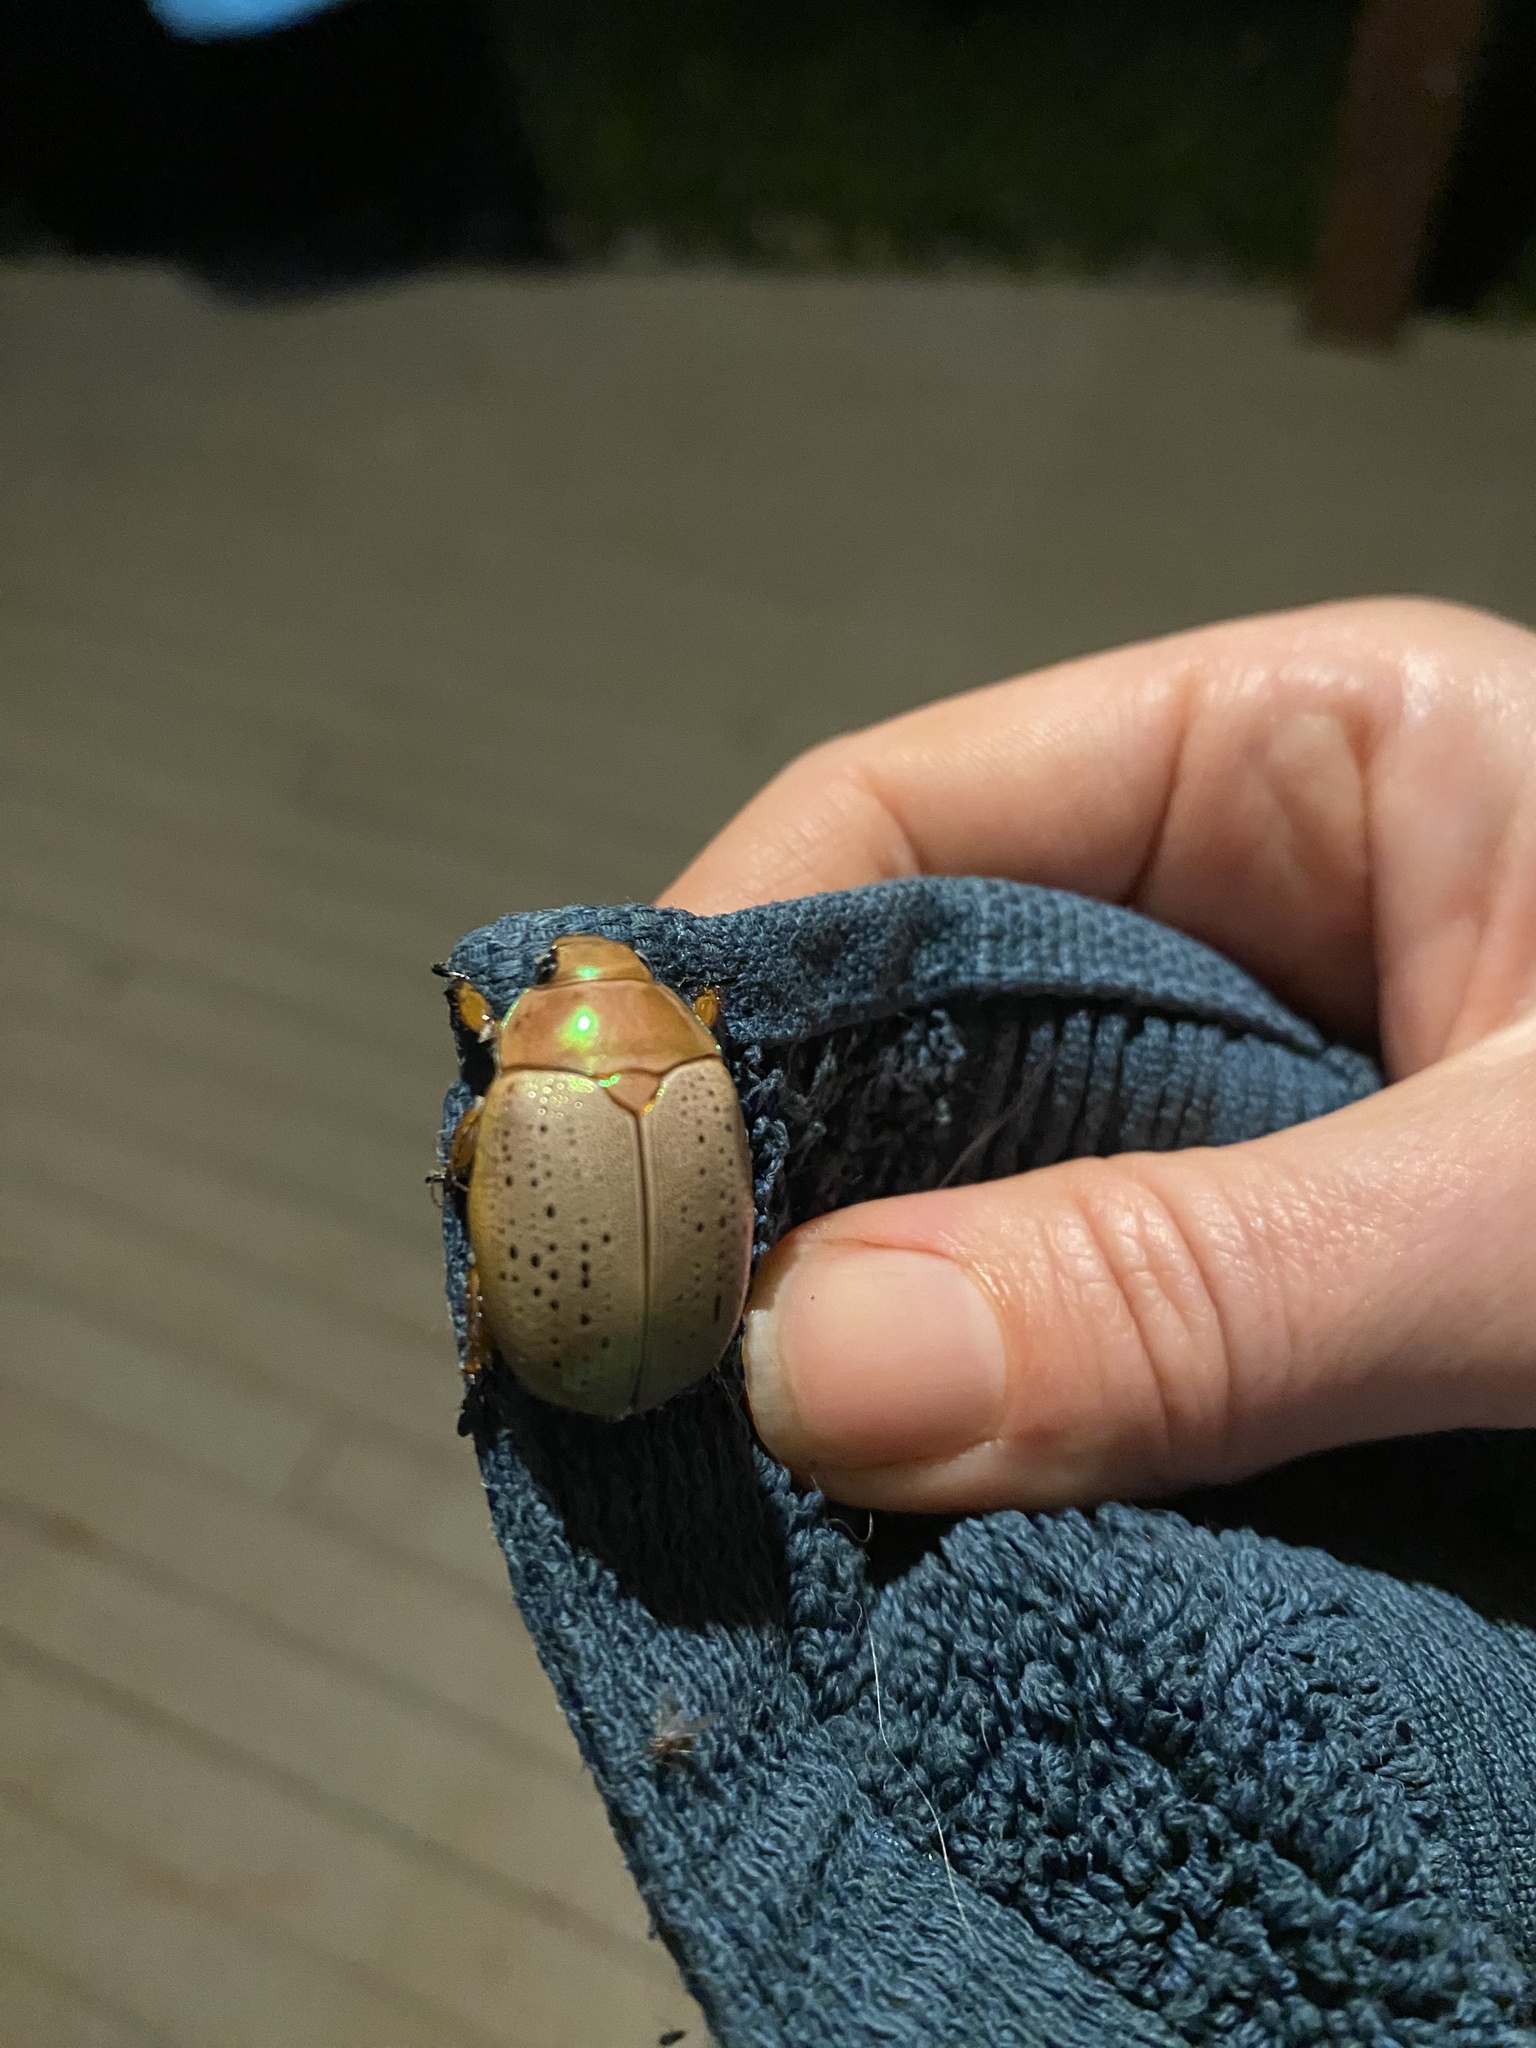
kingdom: Animalia
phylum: Arthropoda
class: Insecta
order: Coleoptera
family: Scarabaeidae
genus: Anoplognathus
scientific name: Anoplognathus porosus
